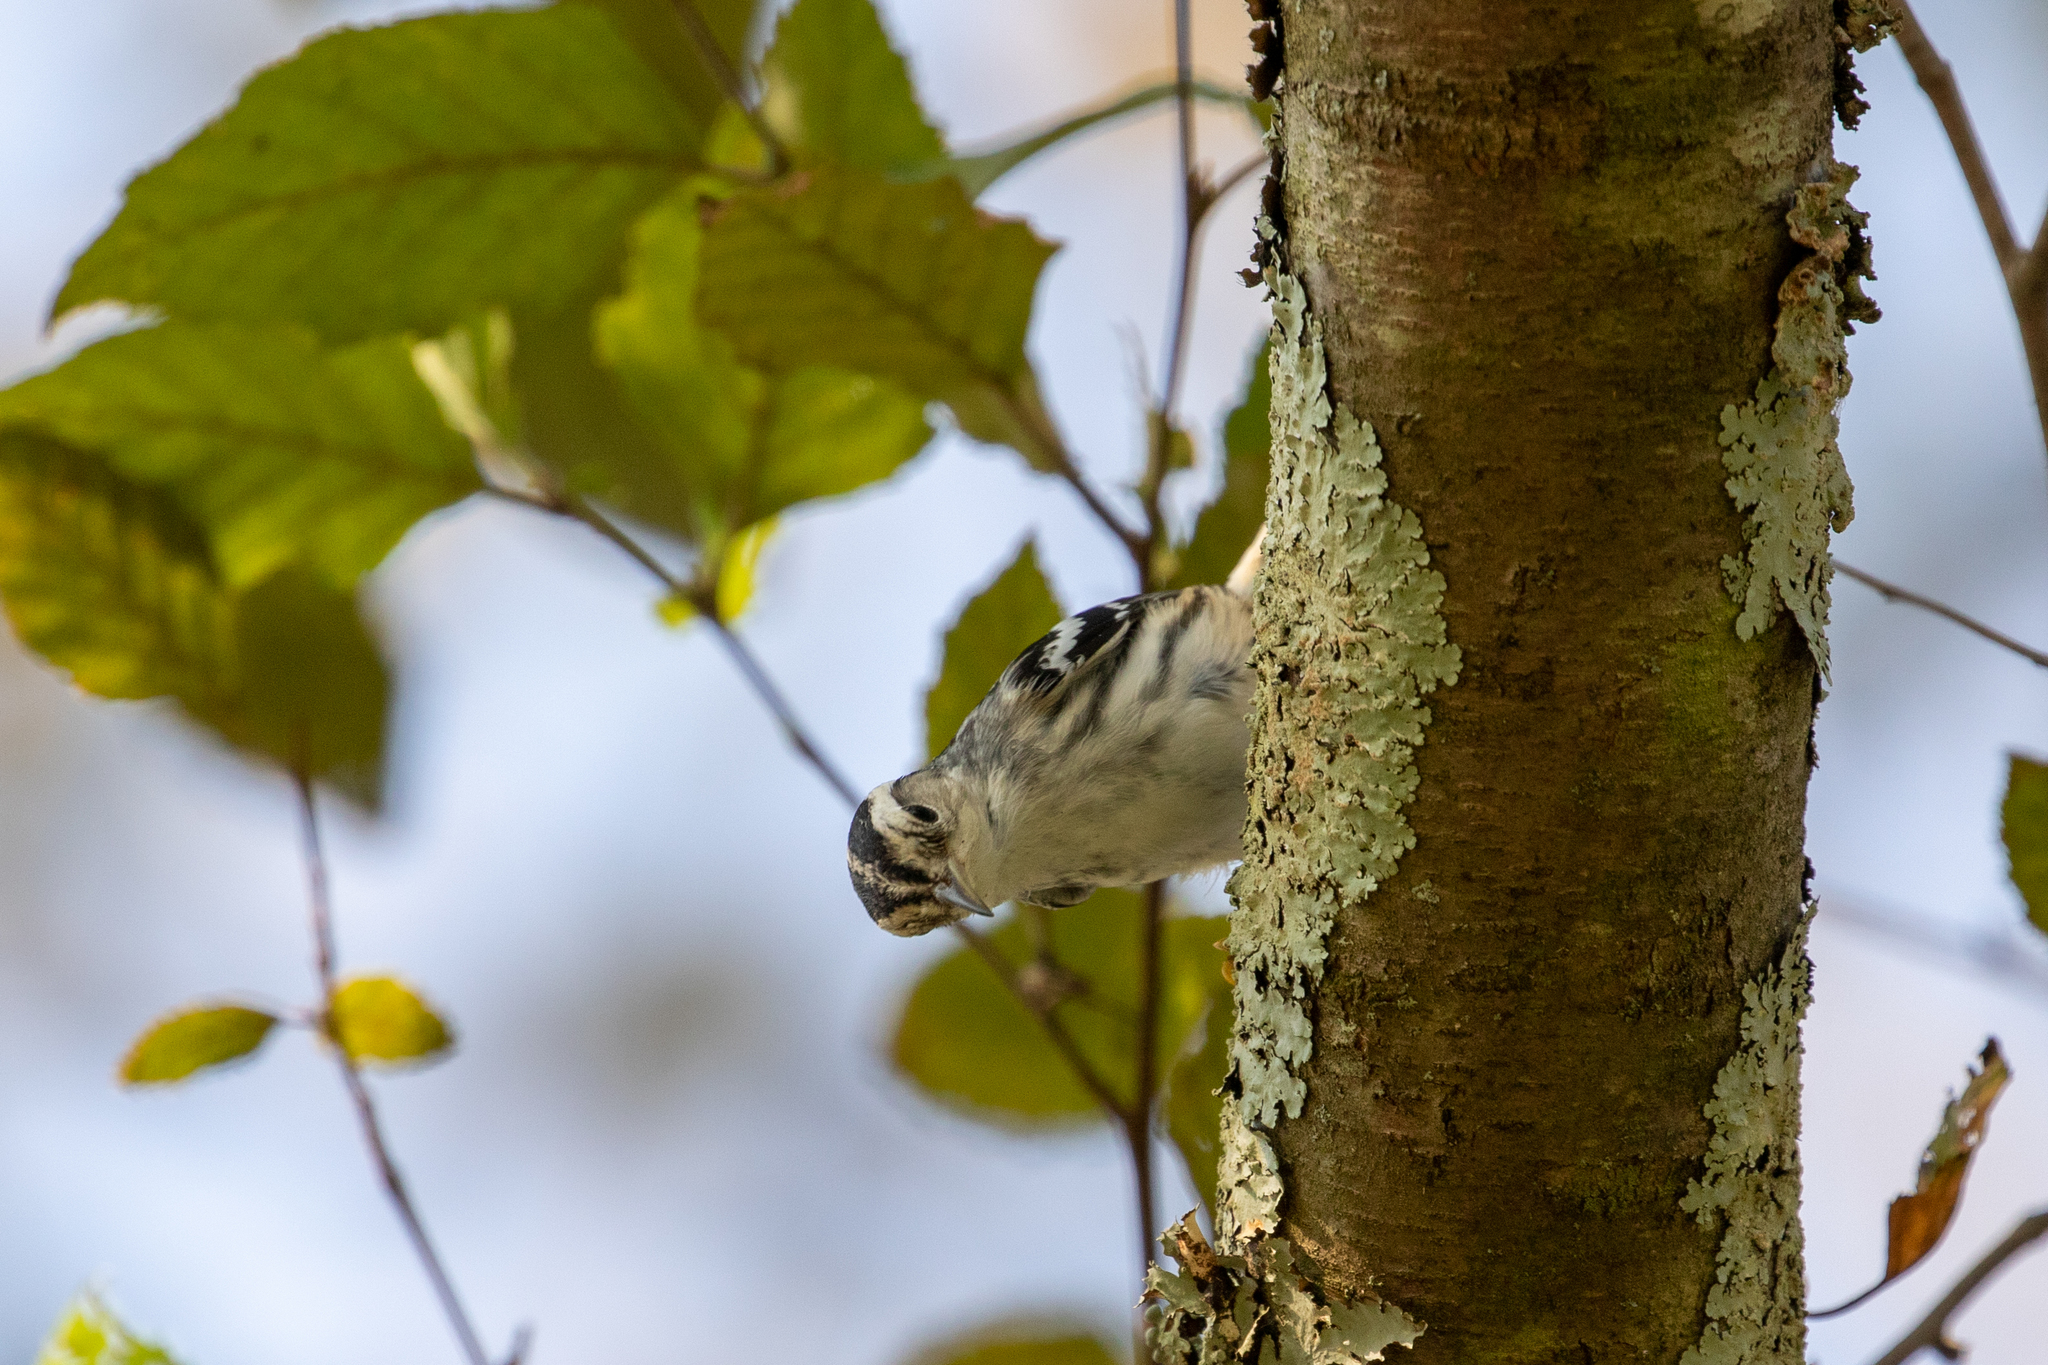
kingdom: Animalia
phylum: Chordata
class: Aves
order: Passeriformes
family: Parulidae
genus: Mniotilta
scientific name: Mniotilta varia
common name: Black-and-white warbler
